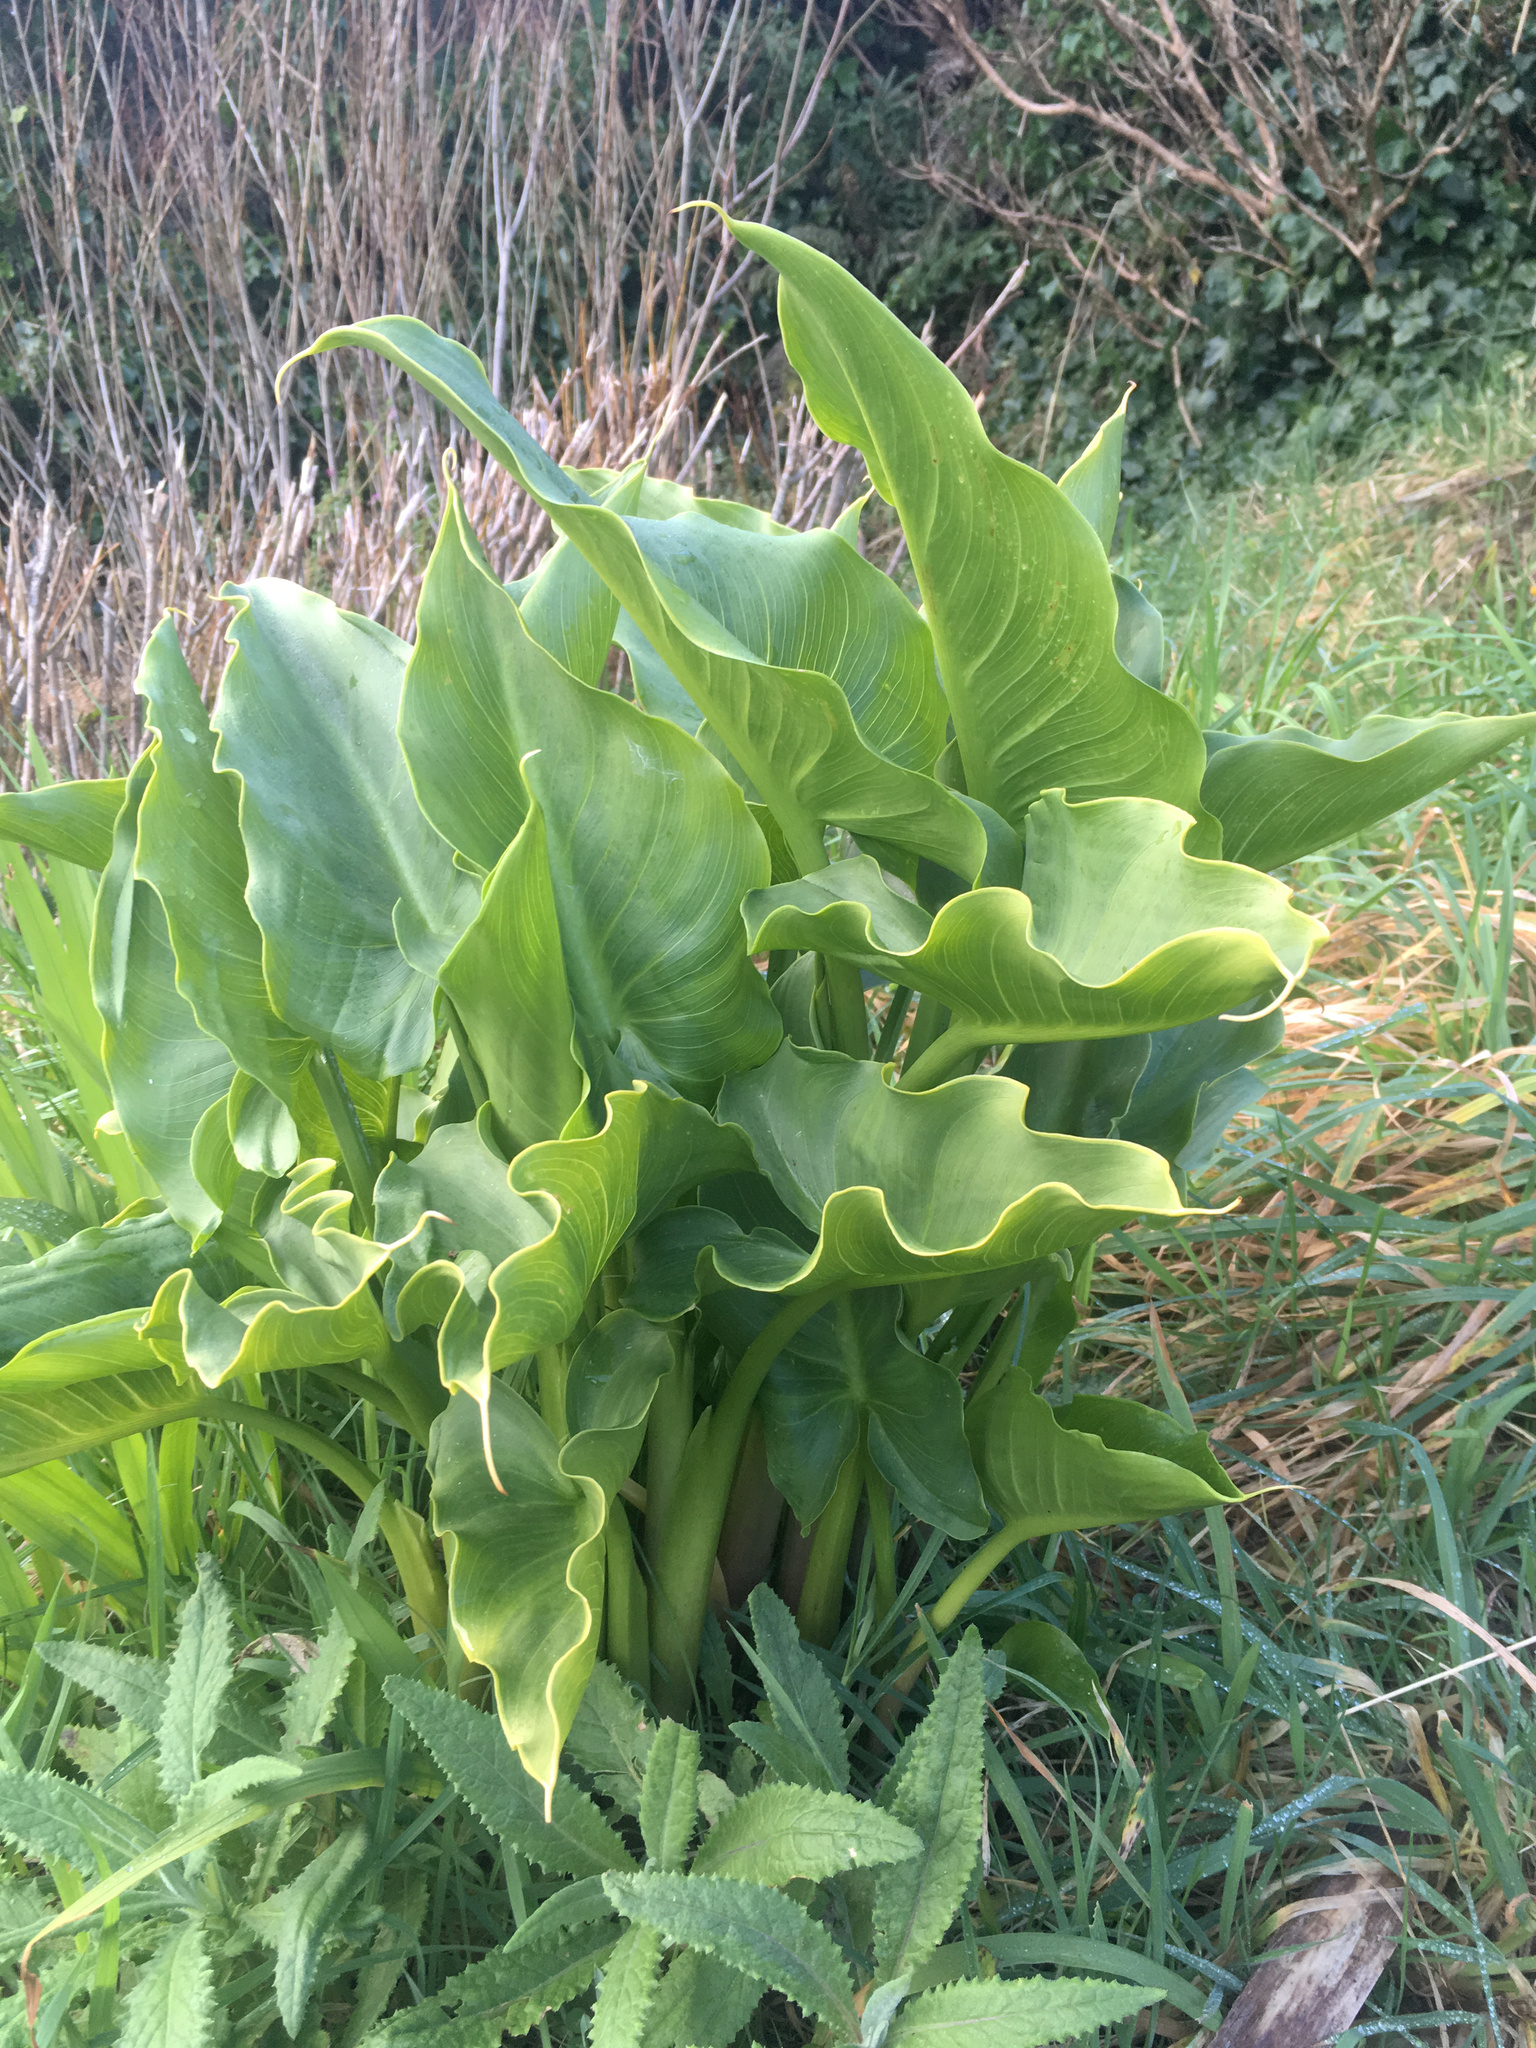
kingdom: Plantae
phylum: Tracheophyta
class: Liliopsida
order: Alismatales
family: Araceae
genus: Zantedeschia
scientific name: Zantedeschia aethiopica
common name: Altar-lily
